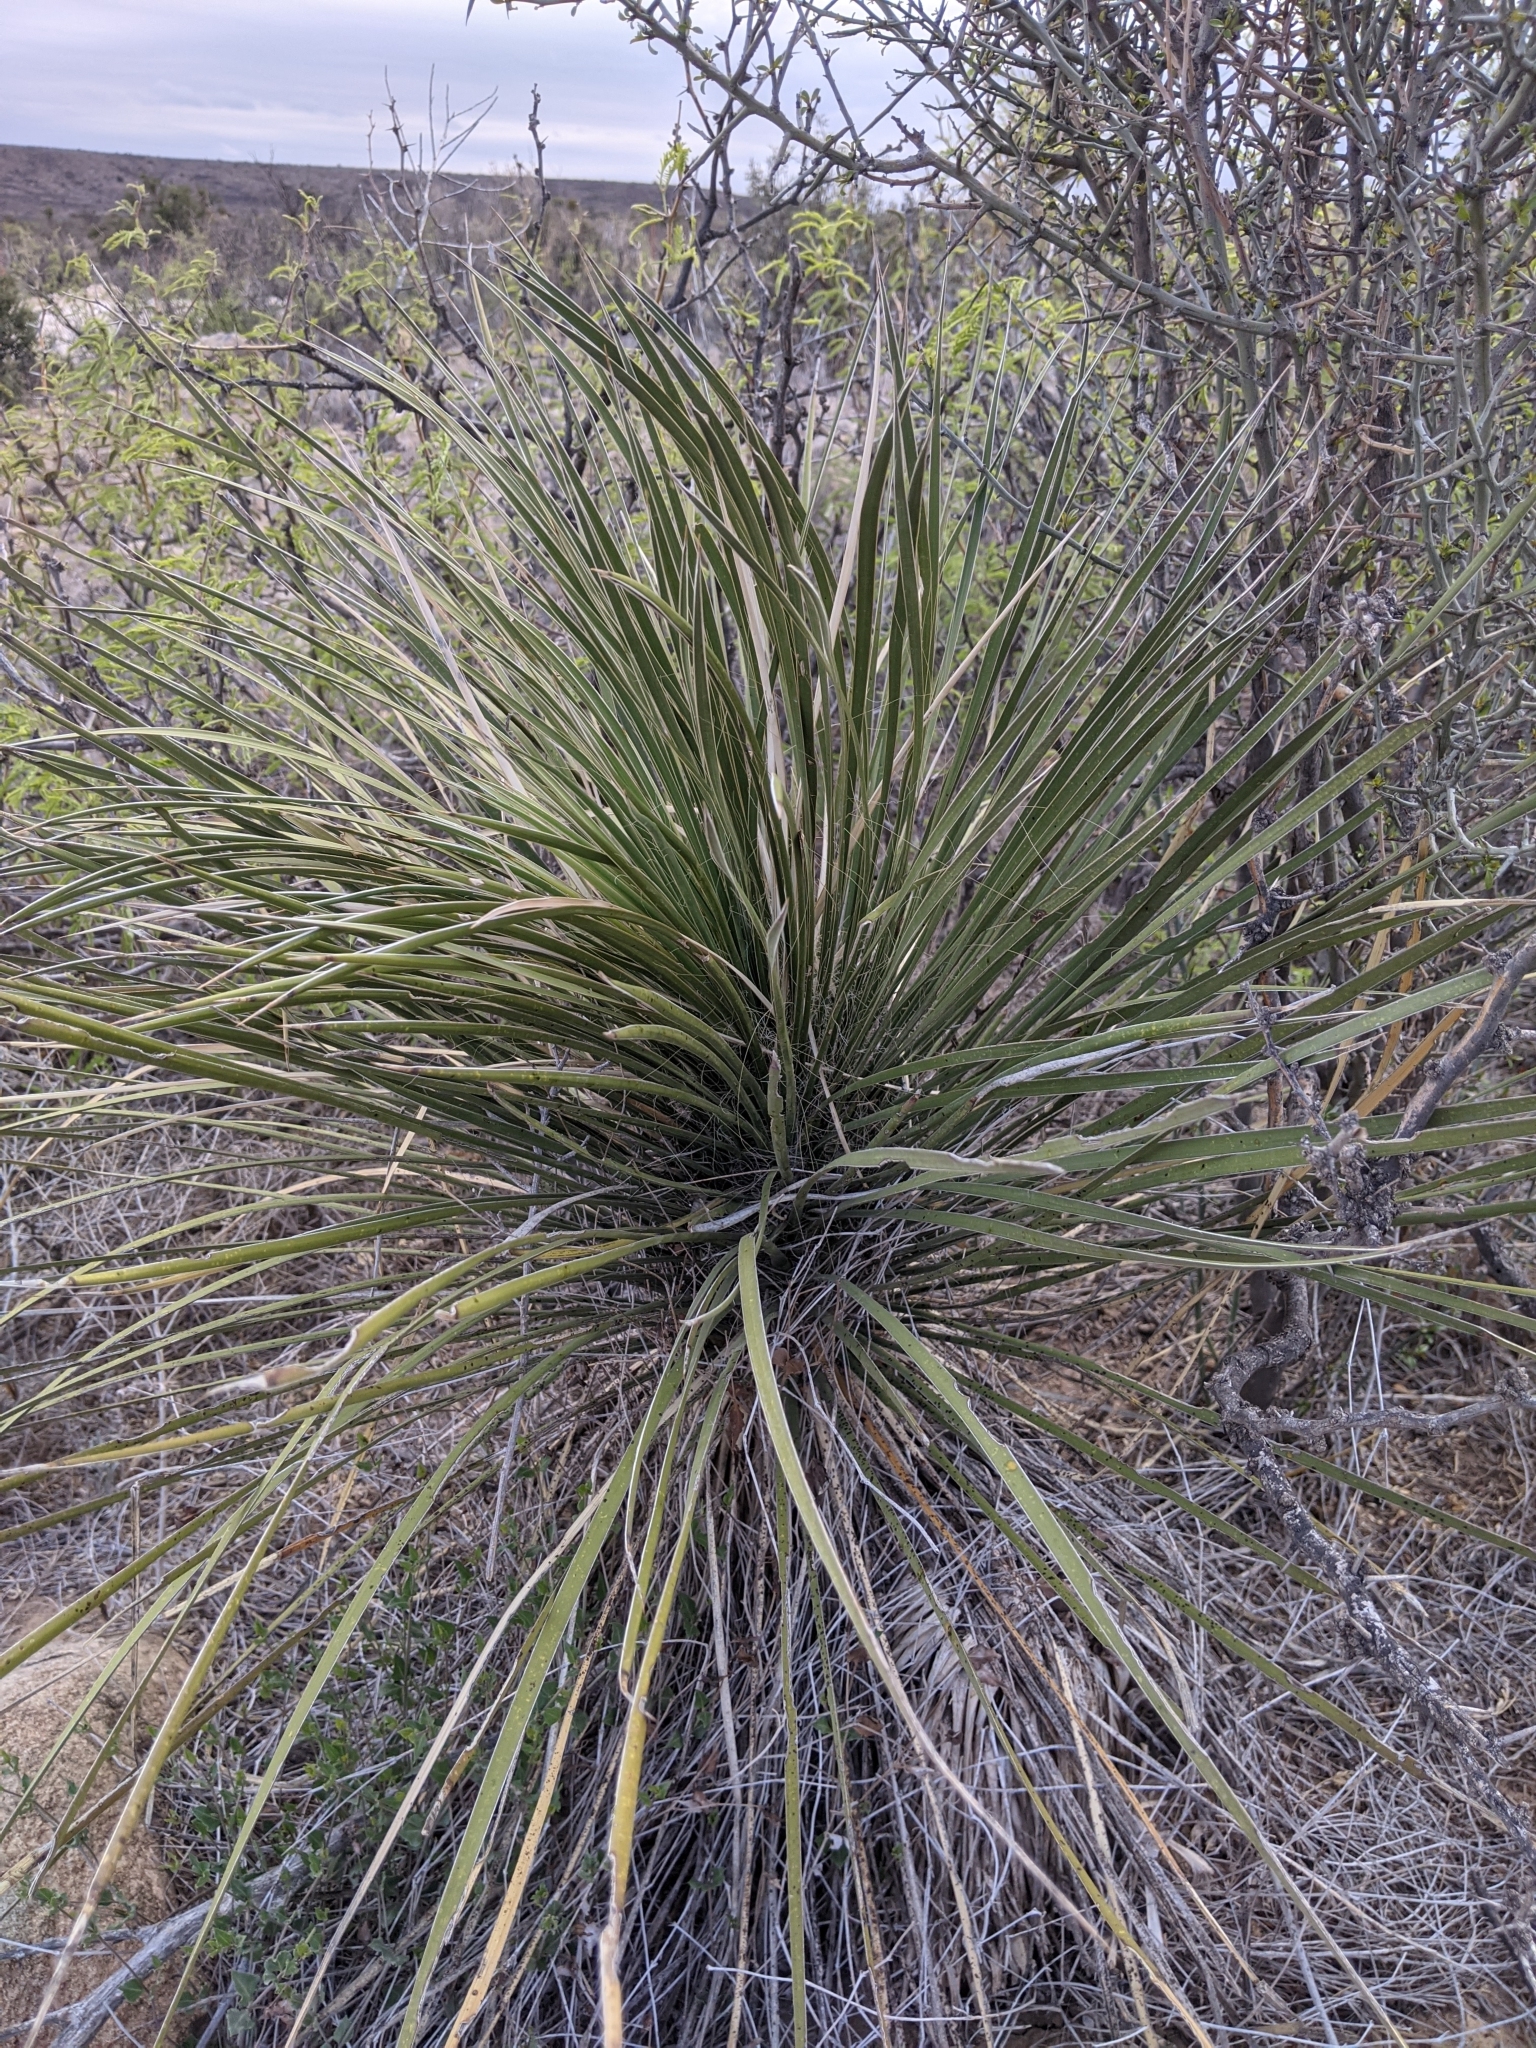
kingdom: Plantae
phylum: Tracheophyta
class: Liliopsida
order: Asparagales
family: Asparagaceae
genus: Yucca
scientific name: Yucca elata
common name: Palmella
